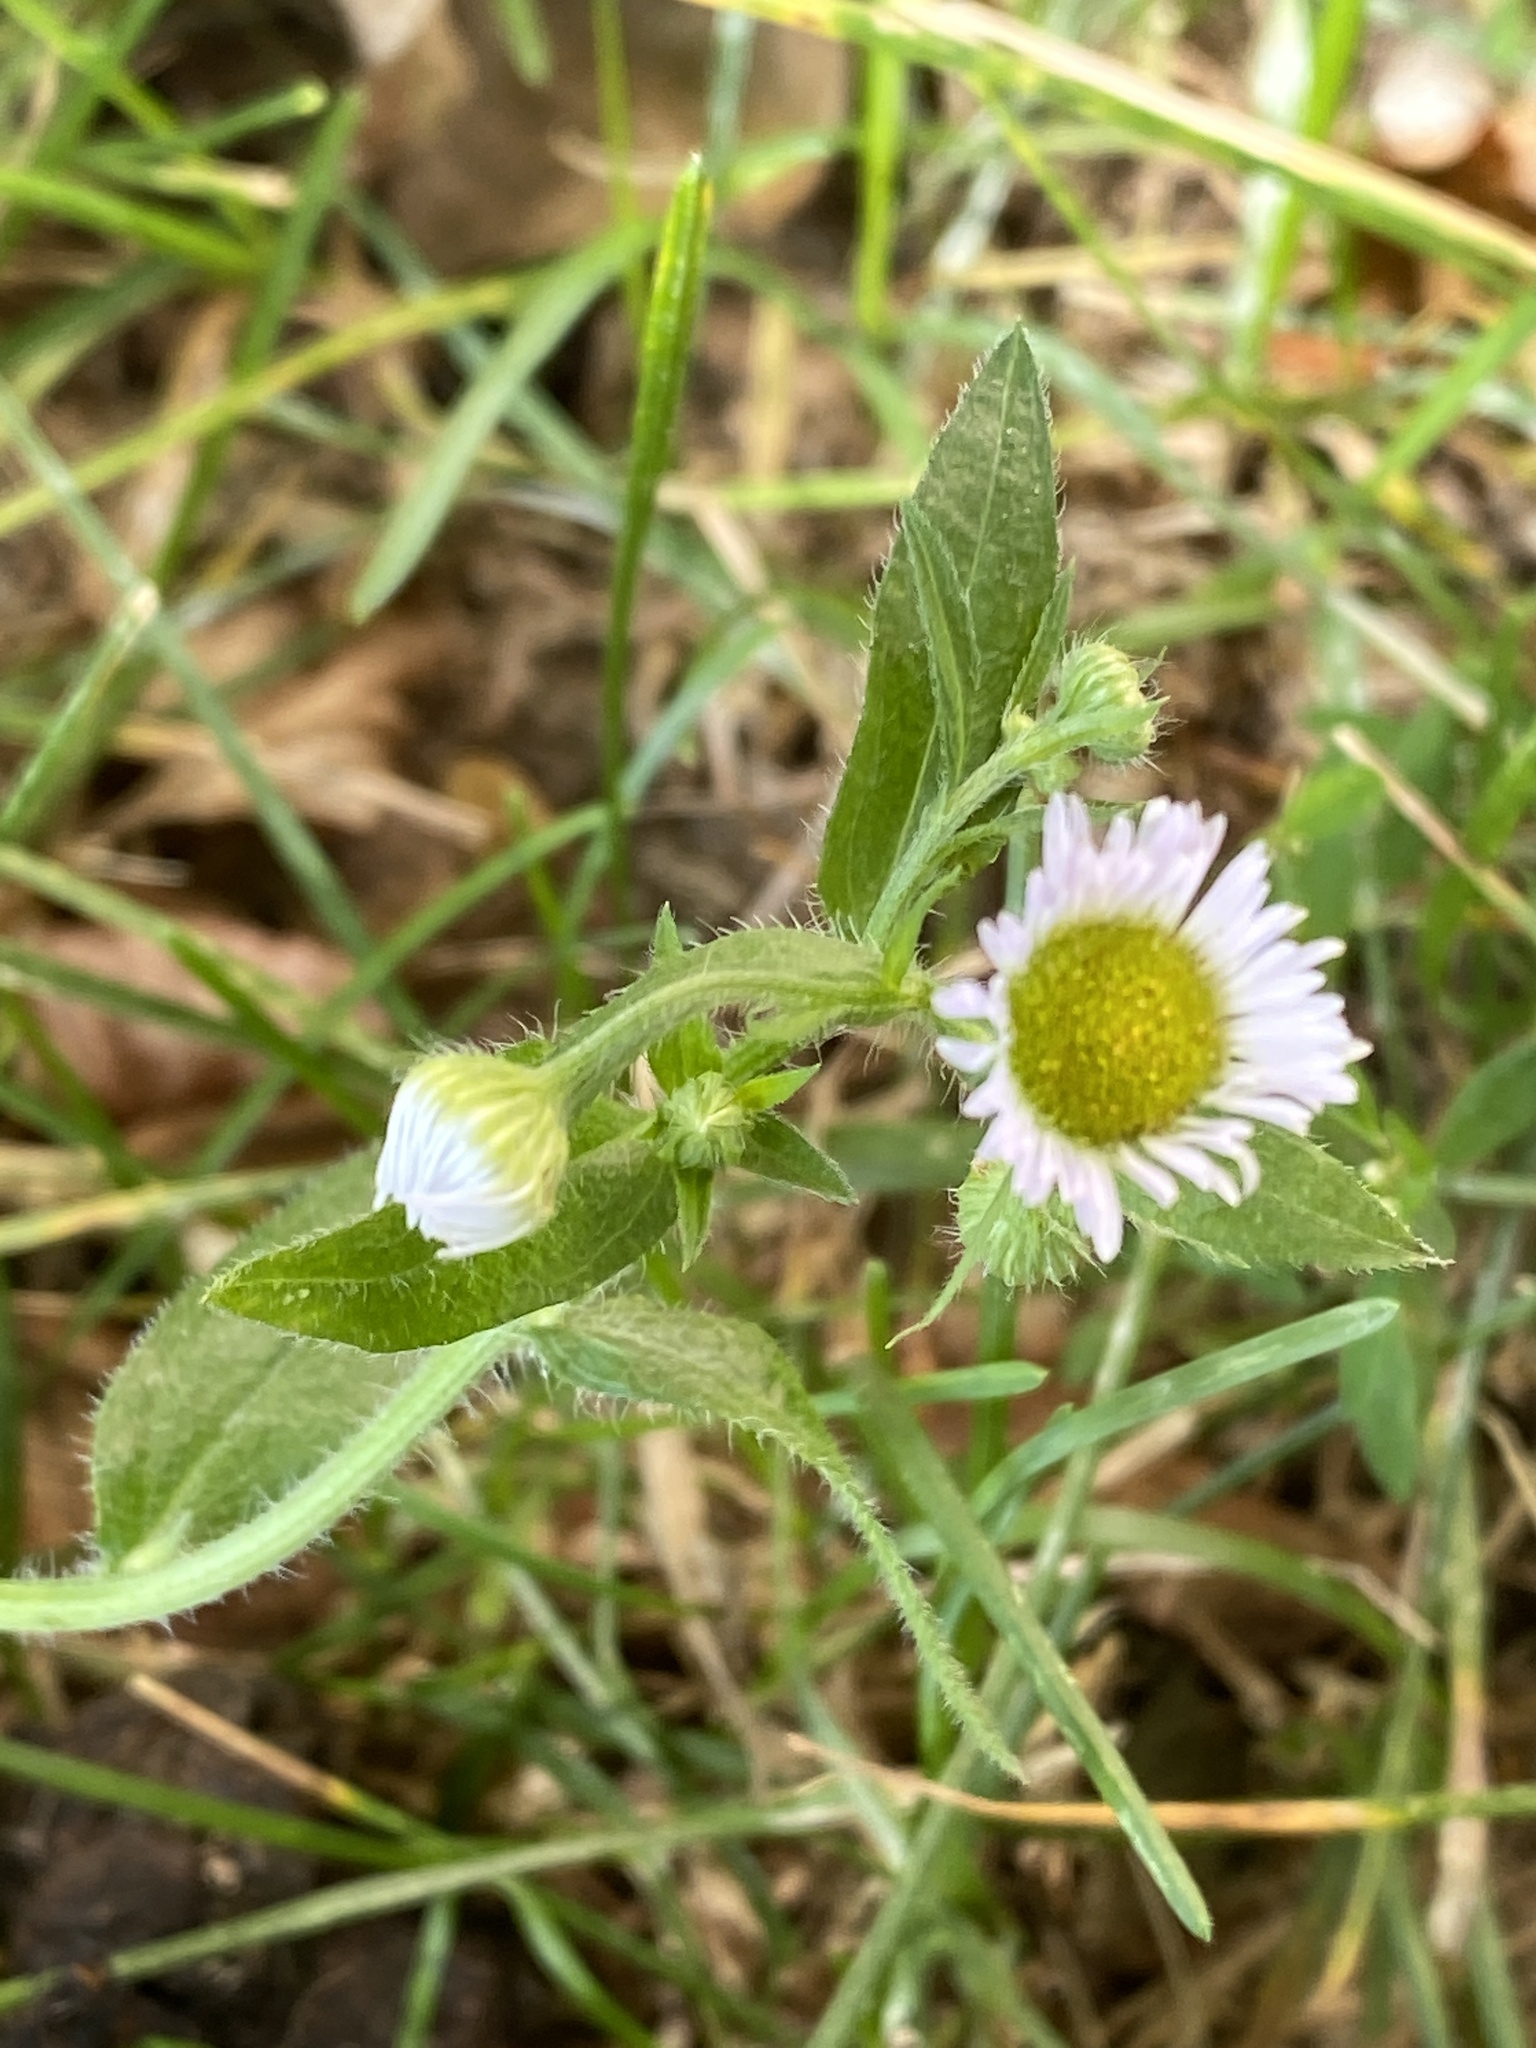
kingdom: Plantae
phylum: Tracheophyta
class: Magnoliopsida
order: Asterales
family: Asteraceae
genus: Erigeron
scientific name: Erigeron annuus
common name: Tall fleabane
